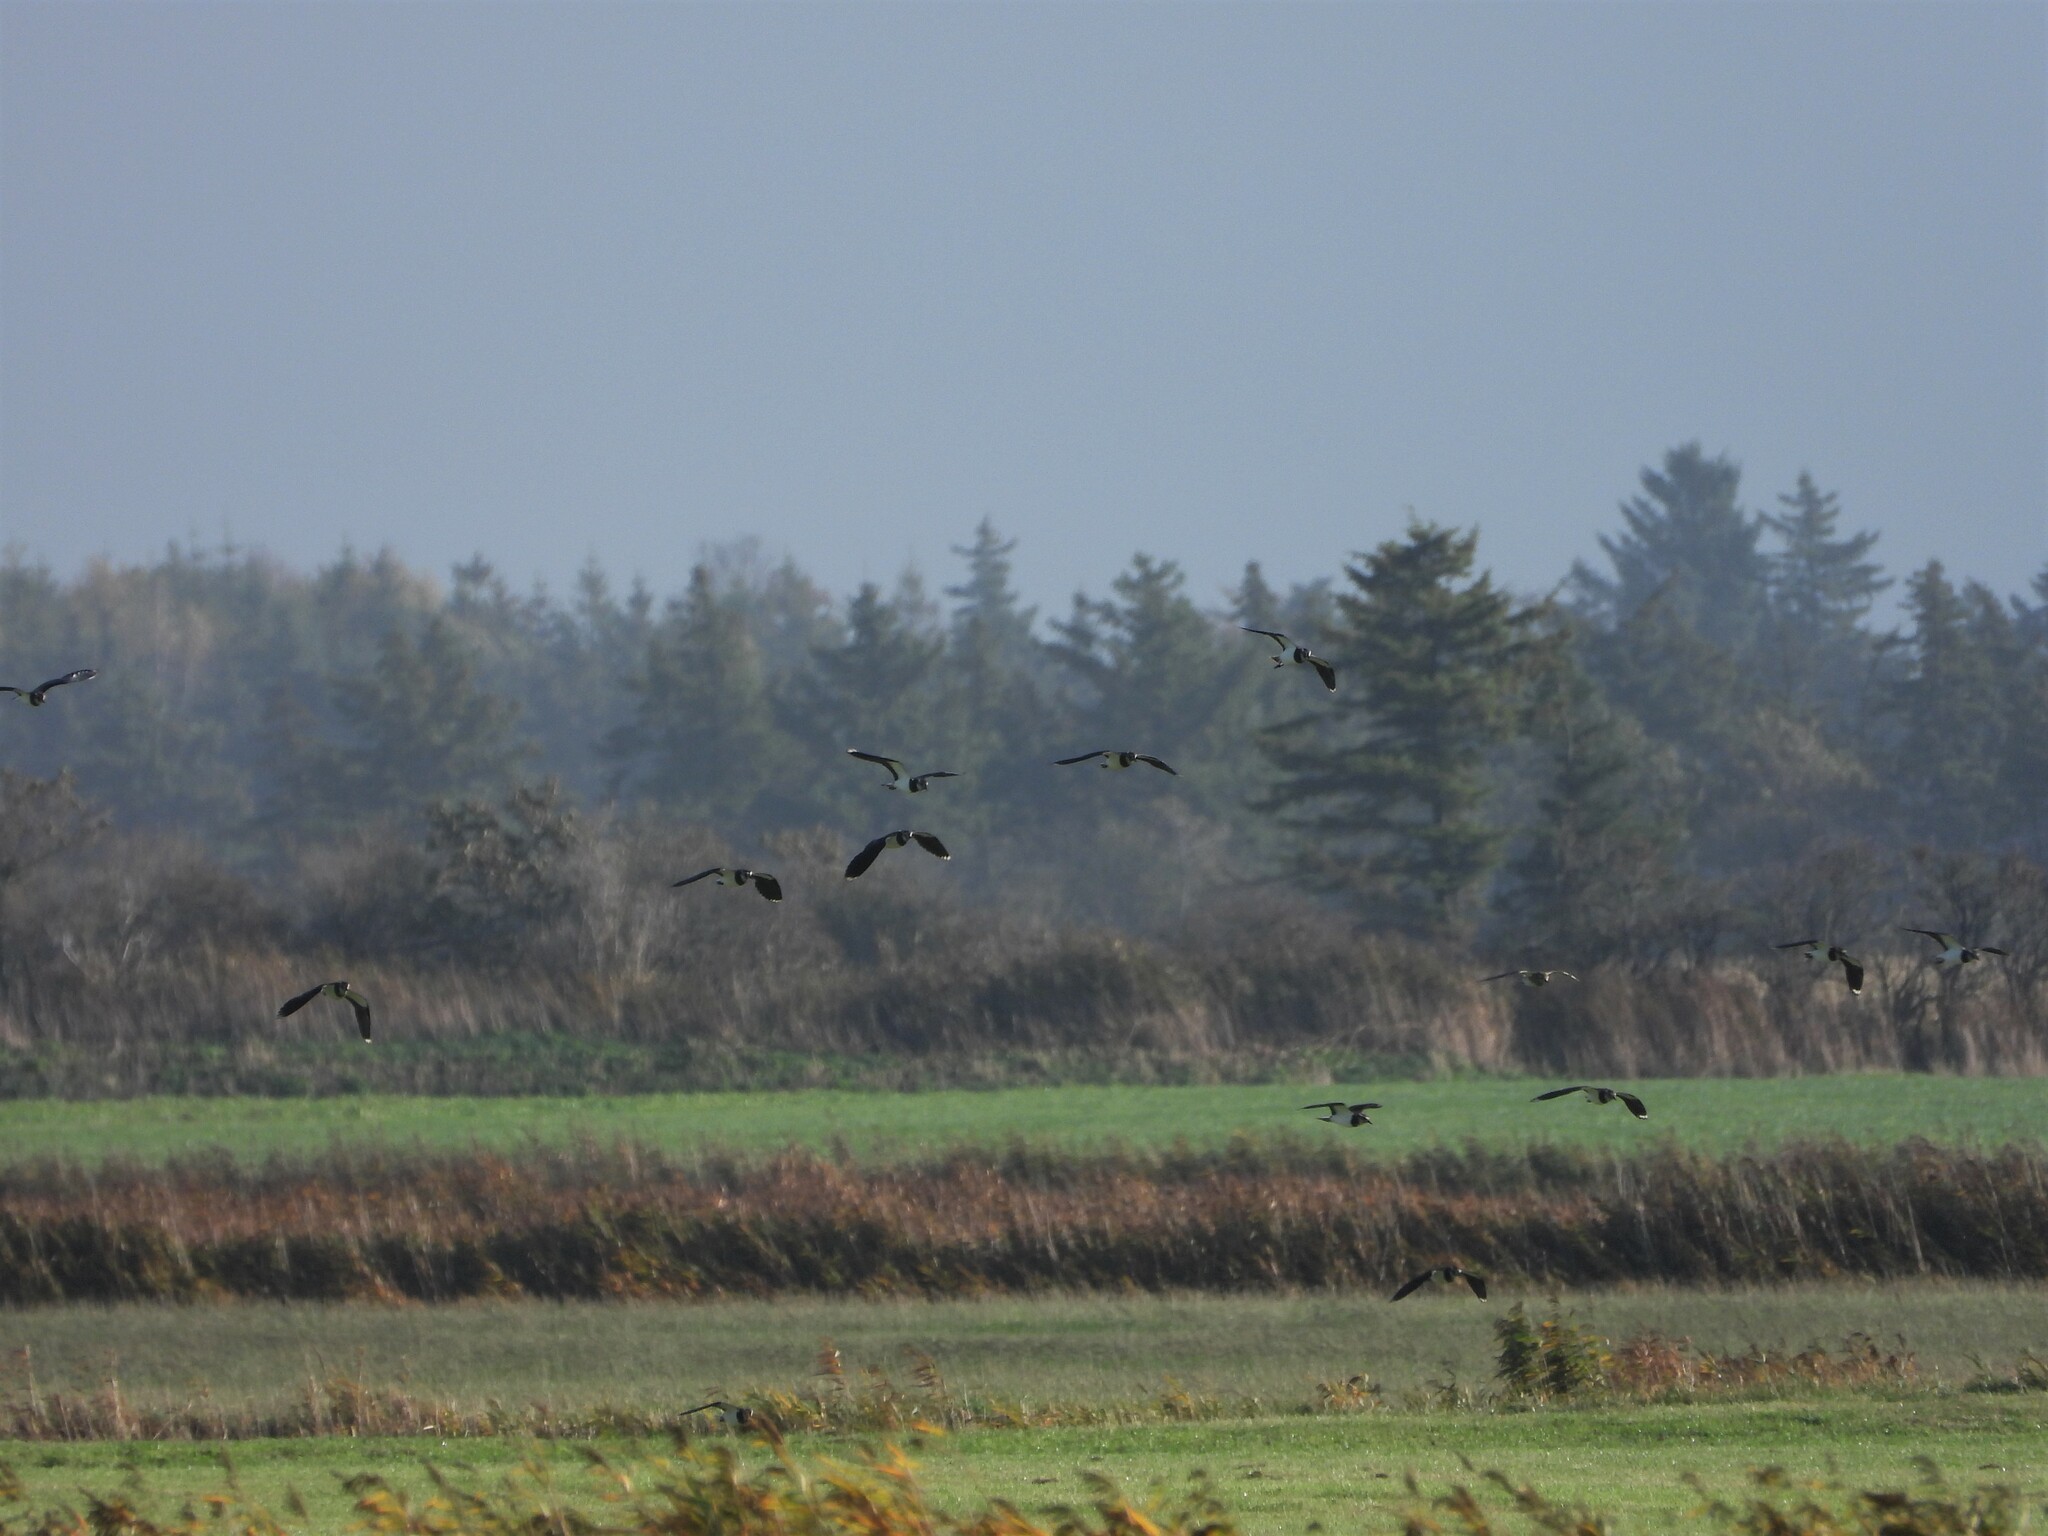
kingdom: Animalia
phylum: Chordata
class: Aves
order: Charadriiformes
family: Charadriidae
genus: Vanellus
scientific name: Vanellus vanellus
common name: Northern lapwing
